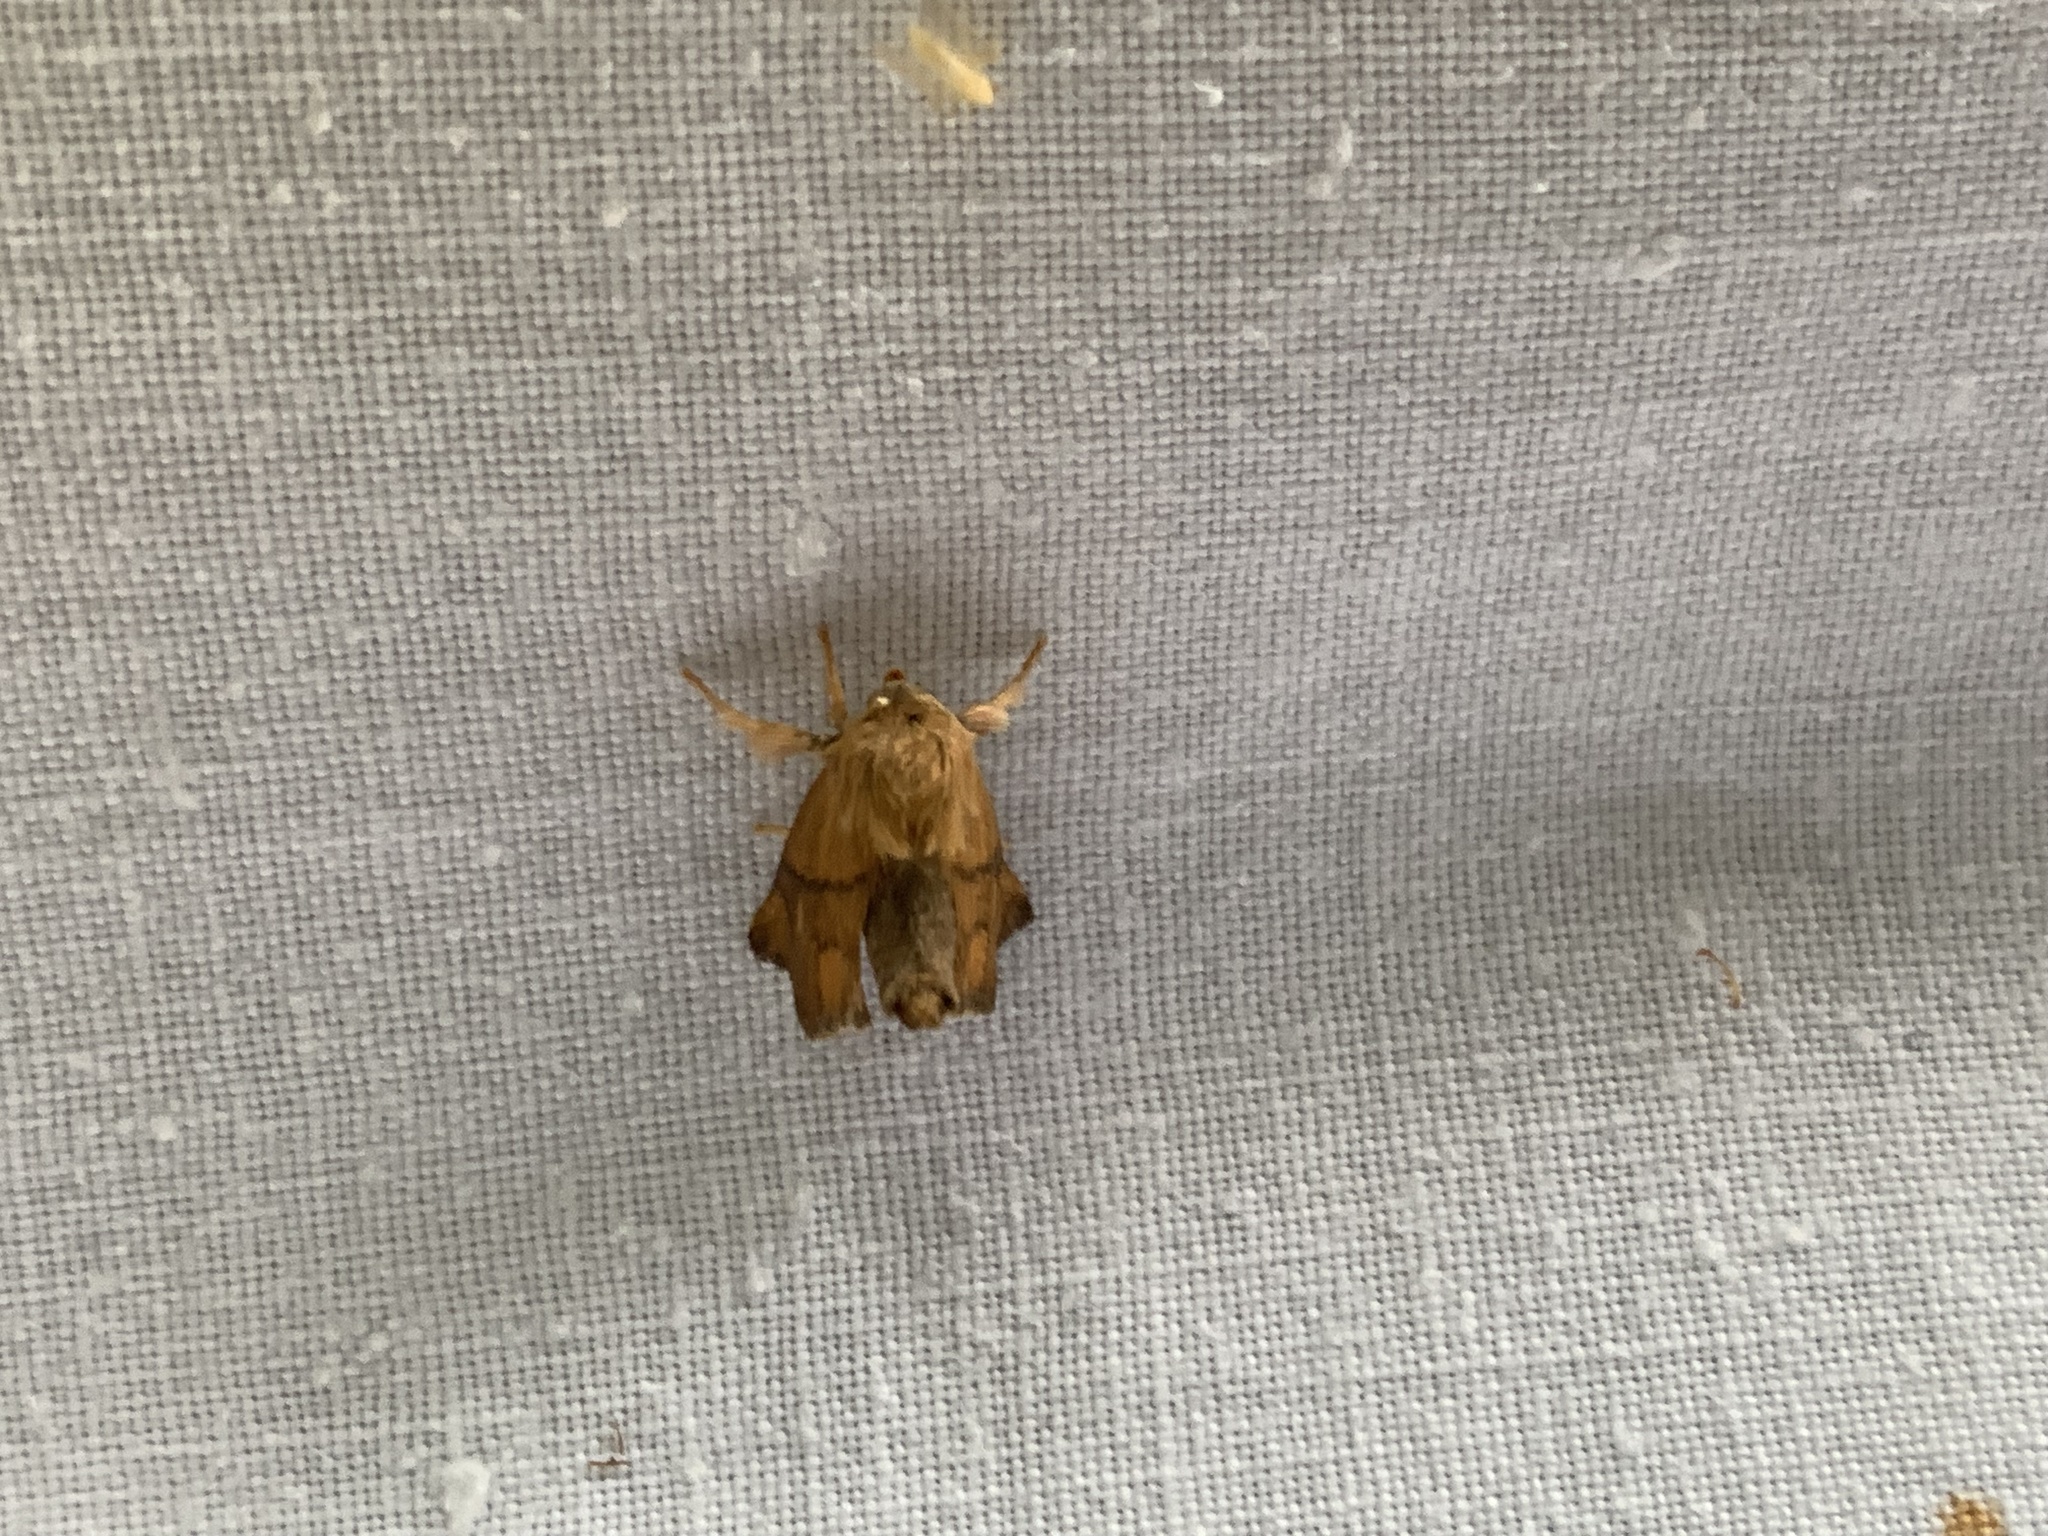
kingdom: Animalia
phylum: Arthropoda
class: Insecta
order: Lepidoptera
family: Limacodidae
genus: Apoda
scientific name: Apoda limacodes
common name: Festoon
